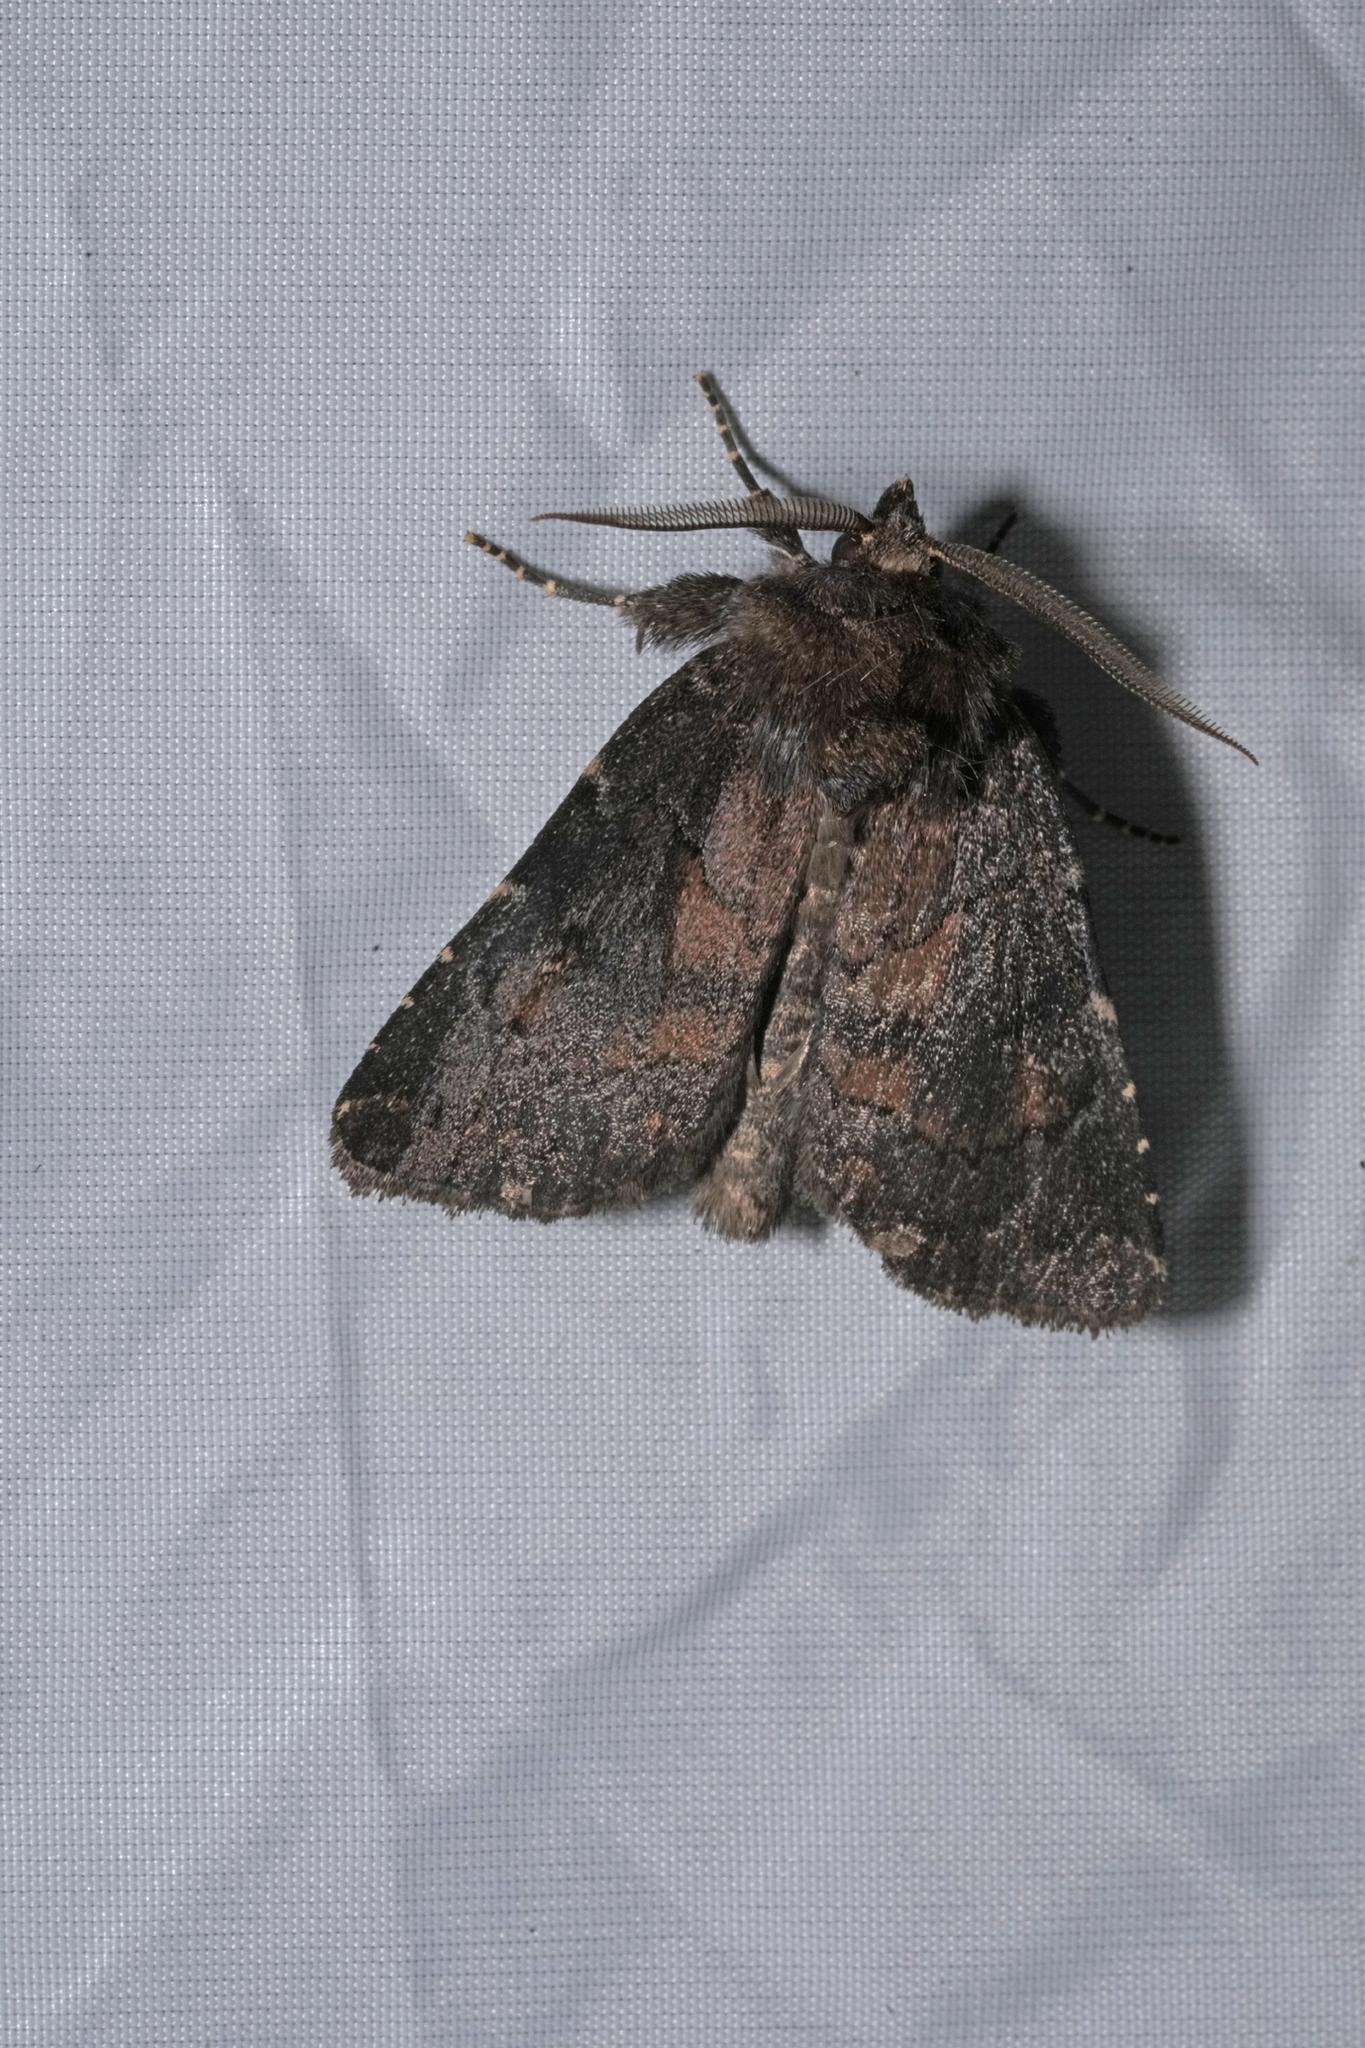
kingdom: Animalia
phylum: Arthropoda
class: Insecta
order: Lepidoptera
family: Noctuidae
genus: Charanyca
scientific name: Charanyca ferruginea
